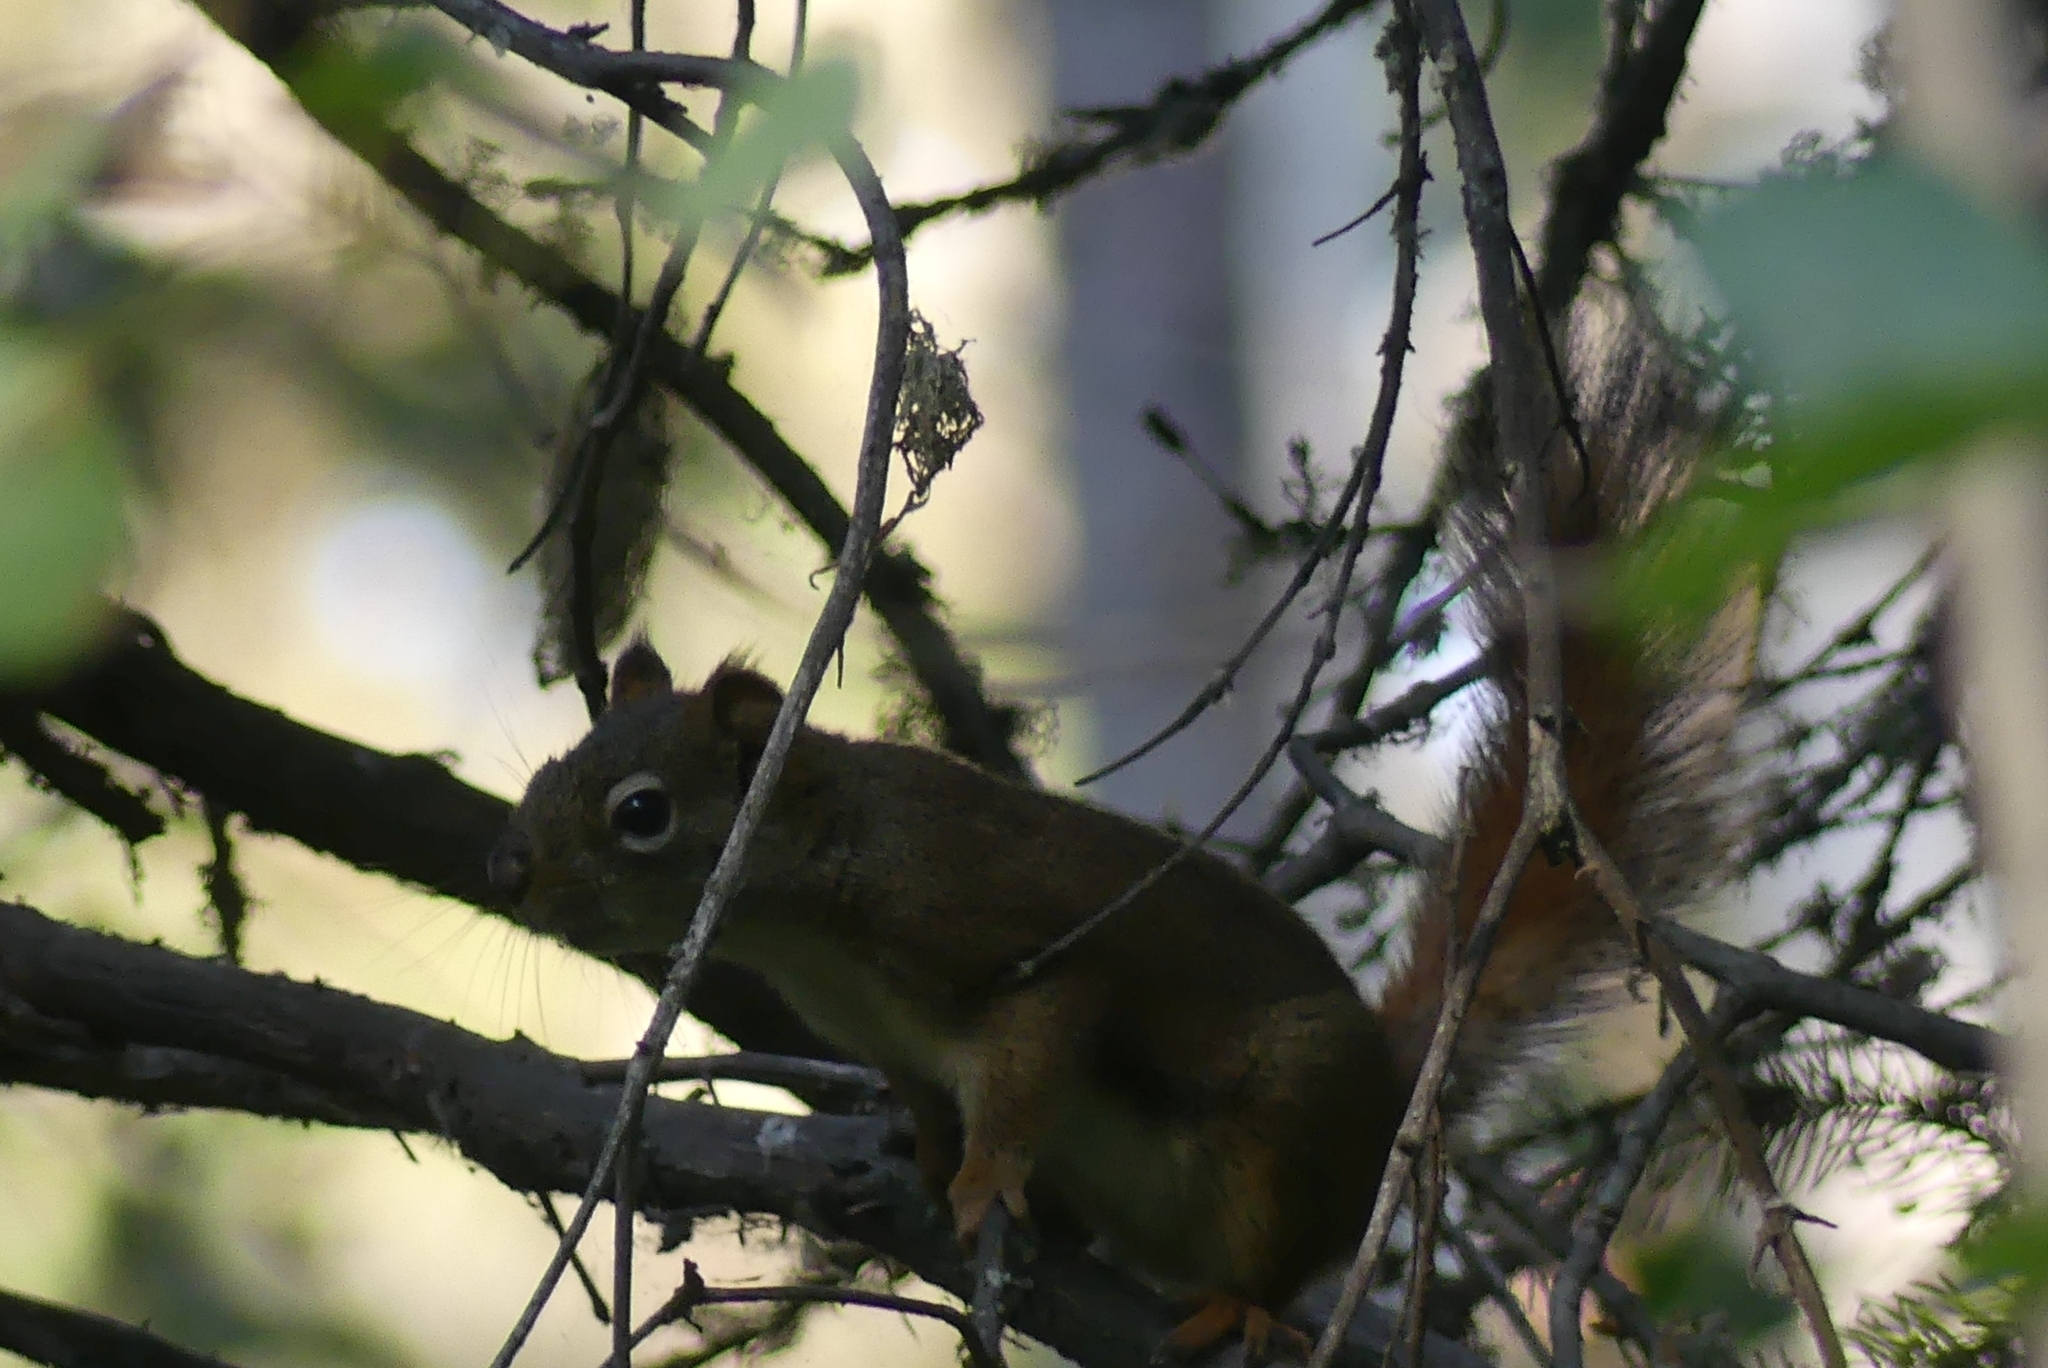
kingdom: Animalia
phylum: Chordata
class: Mammalia
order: Rodentia
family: Sciuridae
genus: Tamiasciurus
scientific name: Tamiasciurus hudsonicus
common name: Red squirrel
